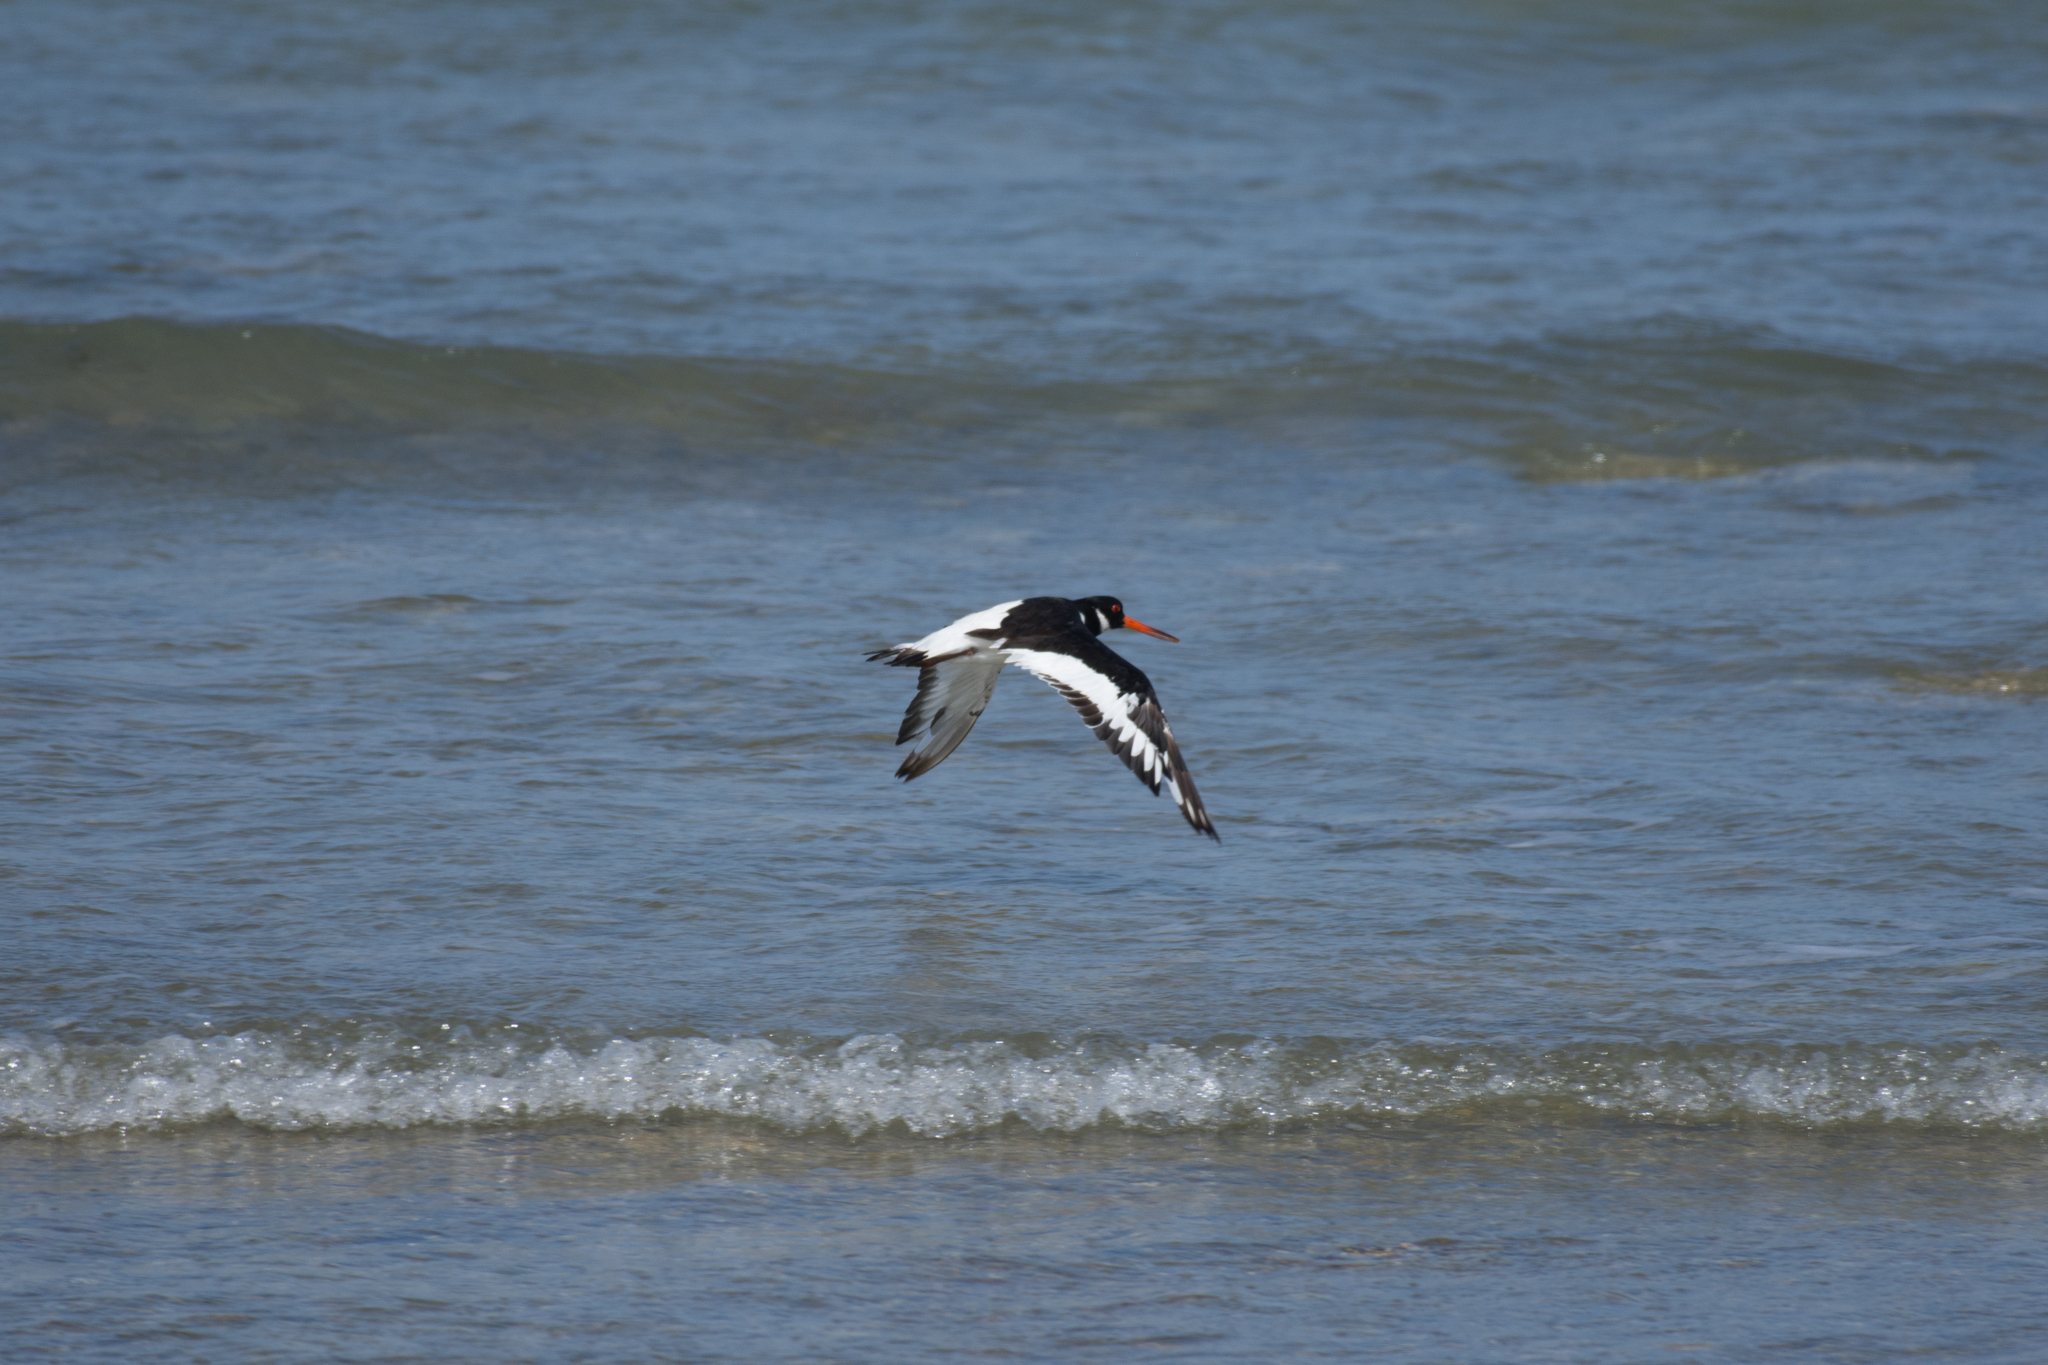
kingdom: Animalia
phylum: Chordata
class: Aves
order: Charadriiformes
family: Haematopodidae
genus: Haematopus
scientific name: Haematopus ostralegus
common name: Eurasian oystercatcher
